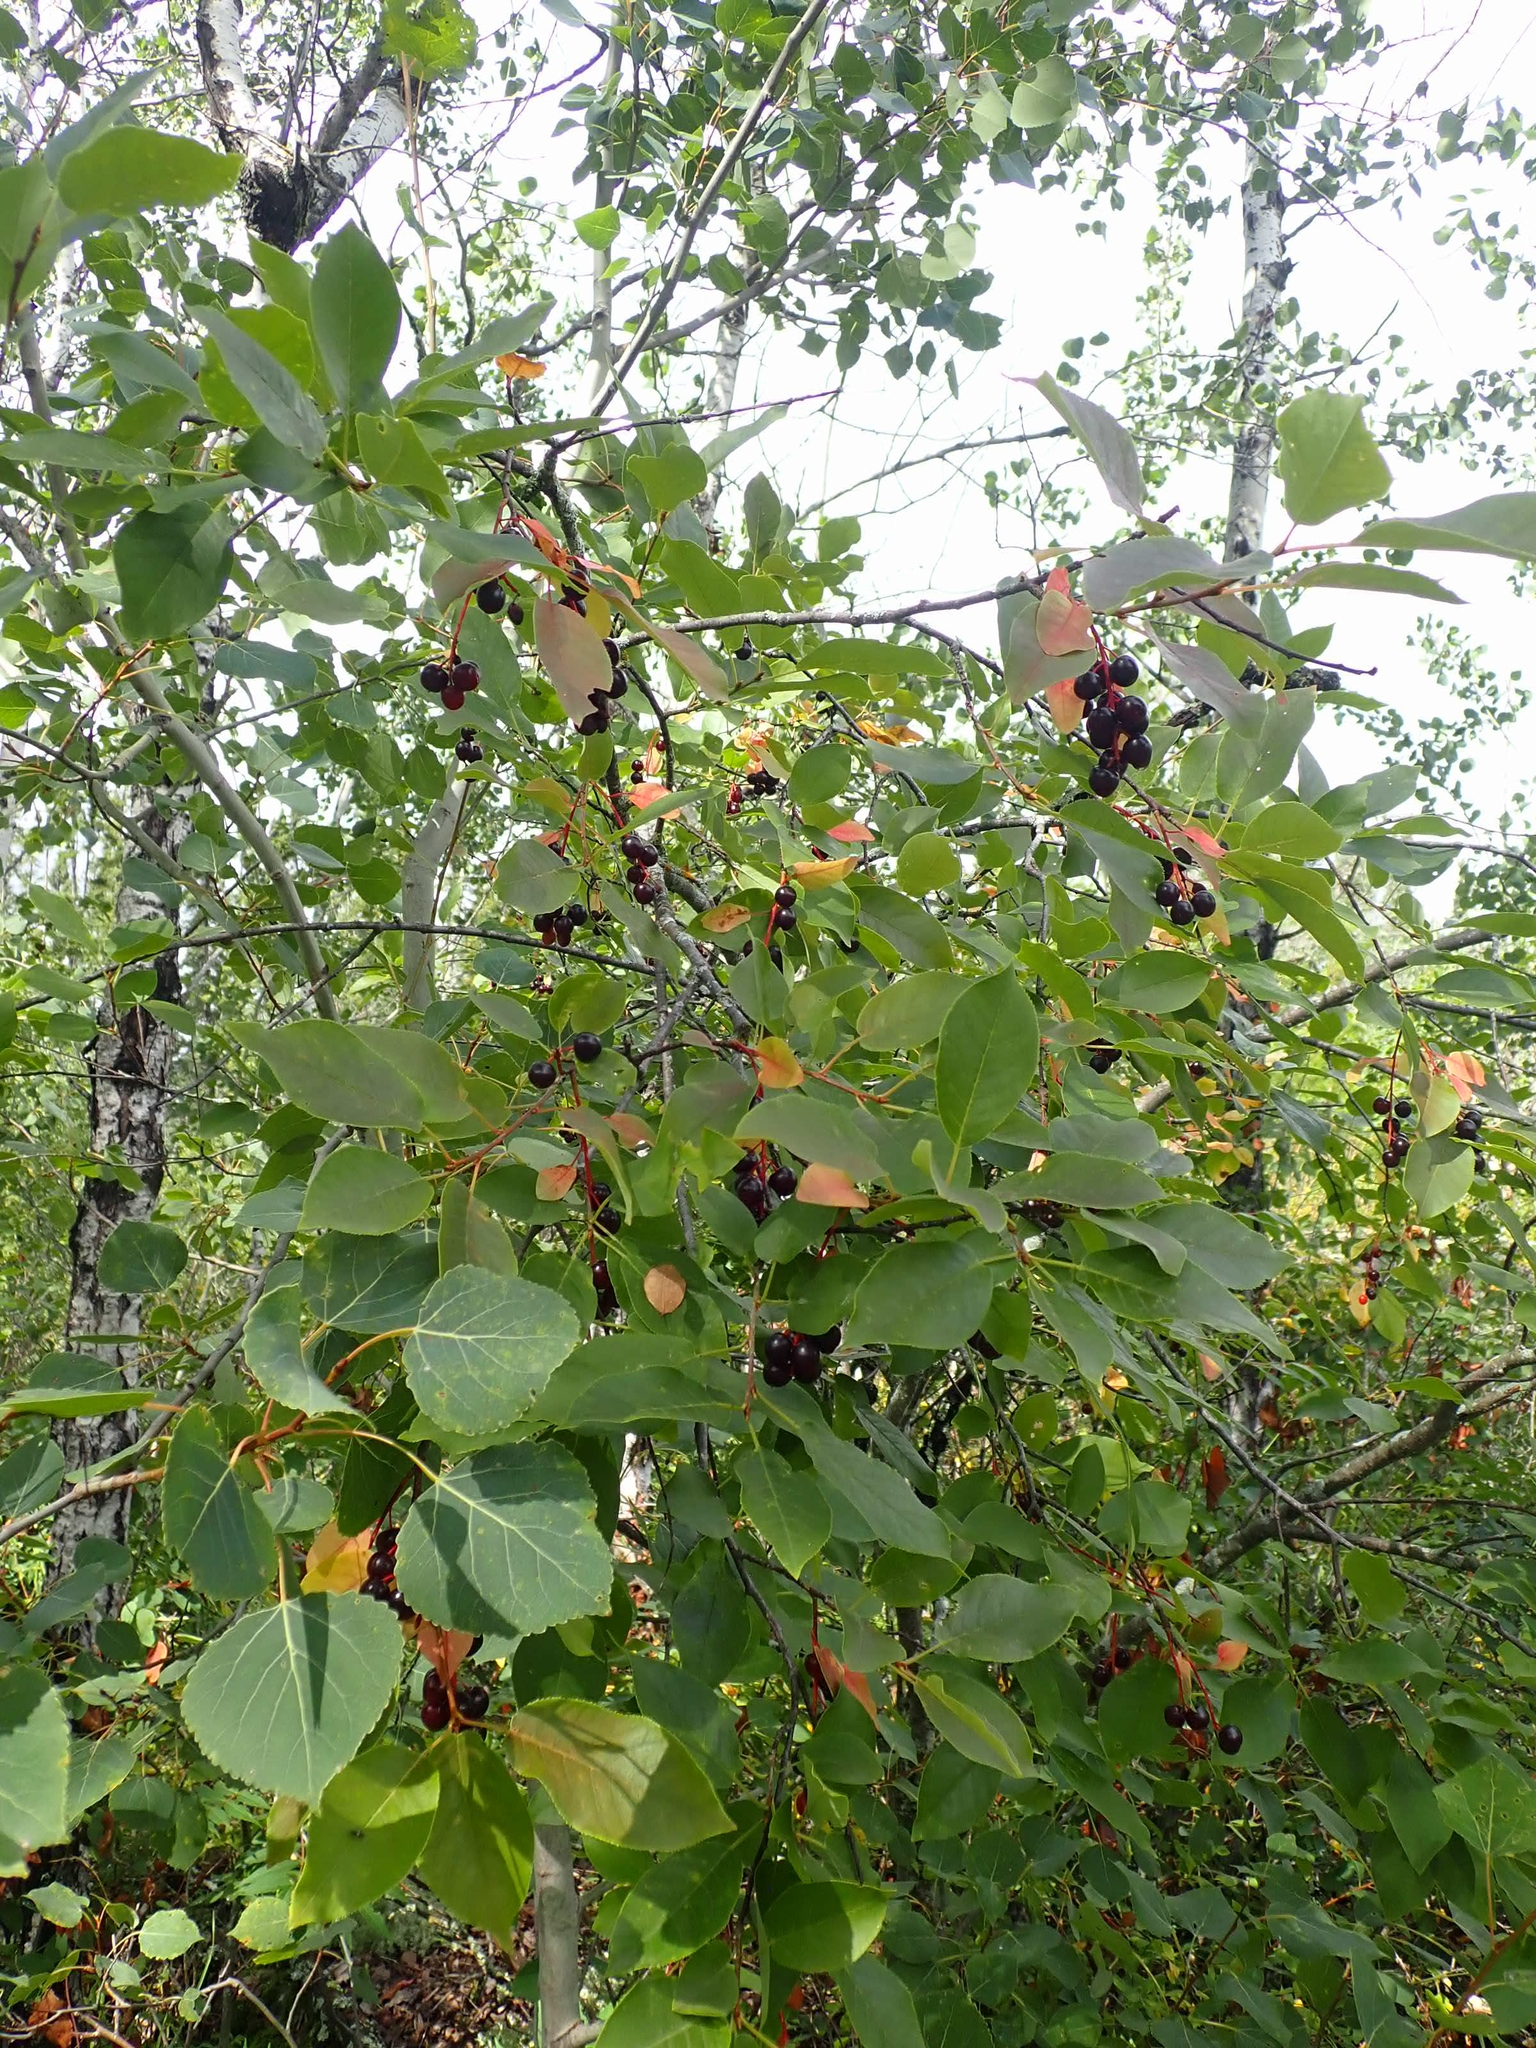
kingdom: Plantae
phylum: Tracheophyta
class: Magnoliopsida
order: Rosales
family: Rosaceae
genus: Prunus
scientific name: Prunus virginiana
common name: Chokecherry
